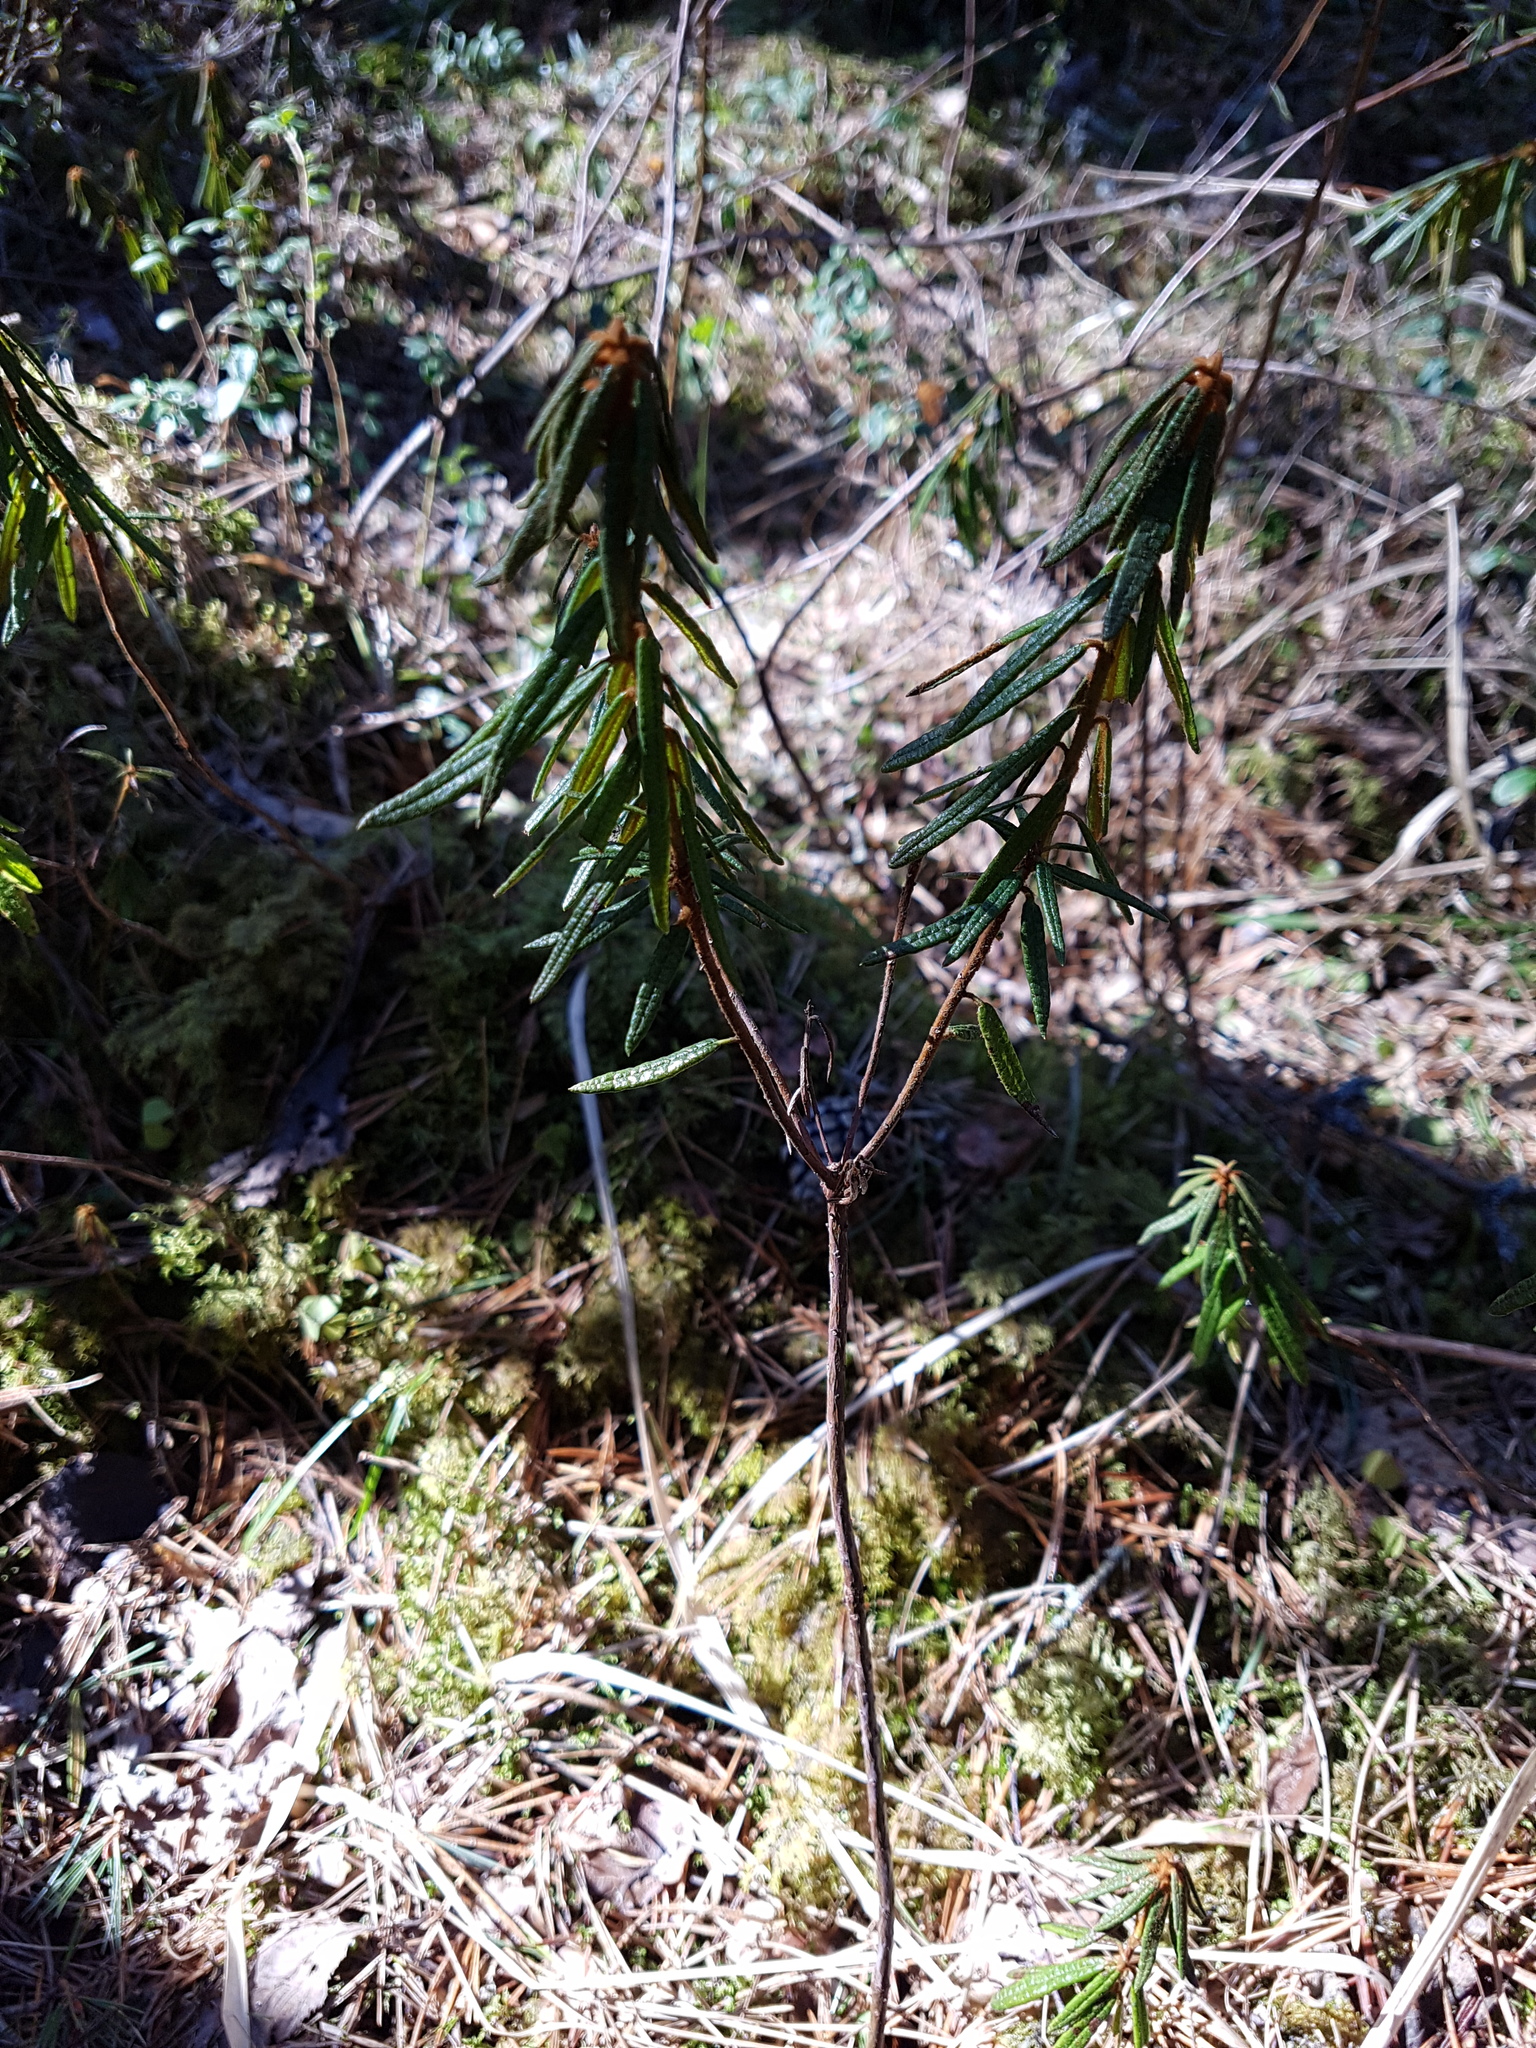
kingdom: Plantae
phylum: Tracheophyta
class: Magnoliopsida
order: Ericales
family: Ericaceae
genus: Rhododendron
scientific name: Rhododendron tomentosum
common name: Marsh labrador tea
